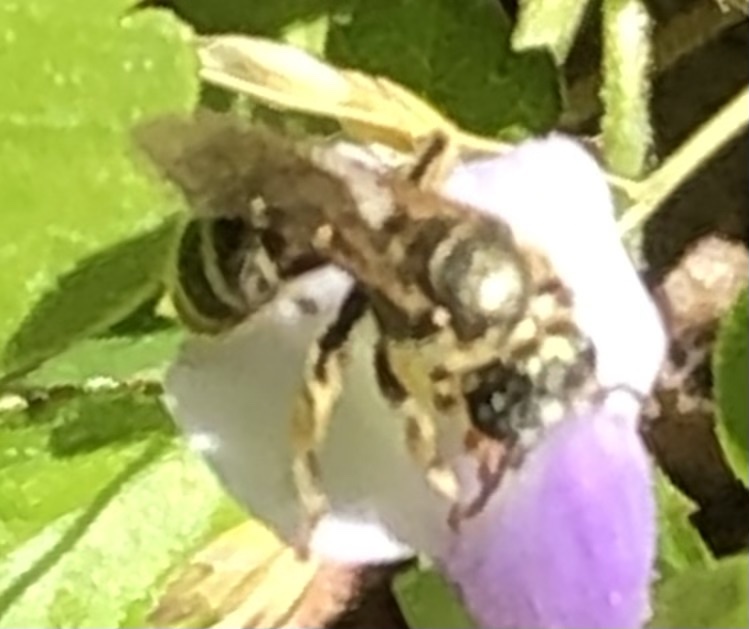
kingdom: Animalia
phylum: Arthropoda
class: Insecta
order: Hymenoptera
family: Halictidae
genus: Halictus
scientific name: Halictus confusus
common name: Southern bronze furrow bee
